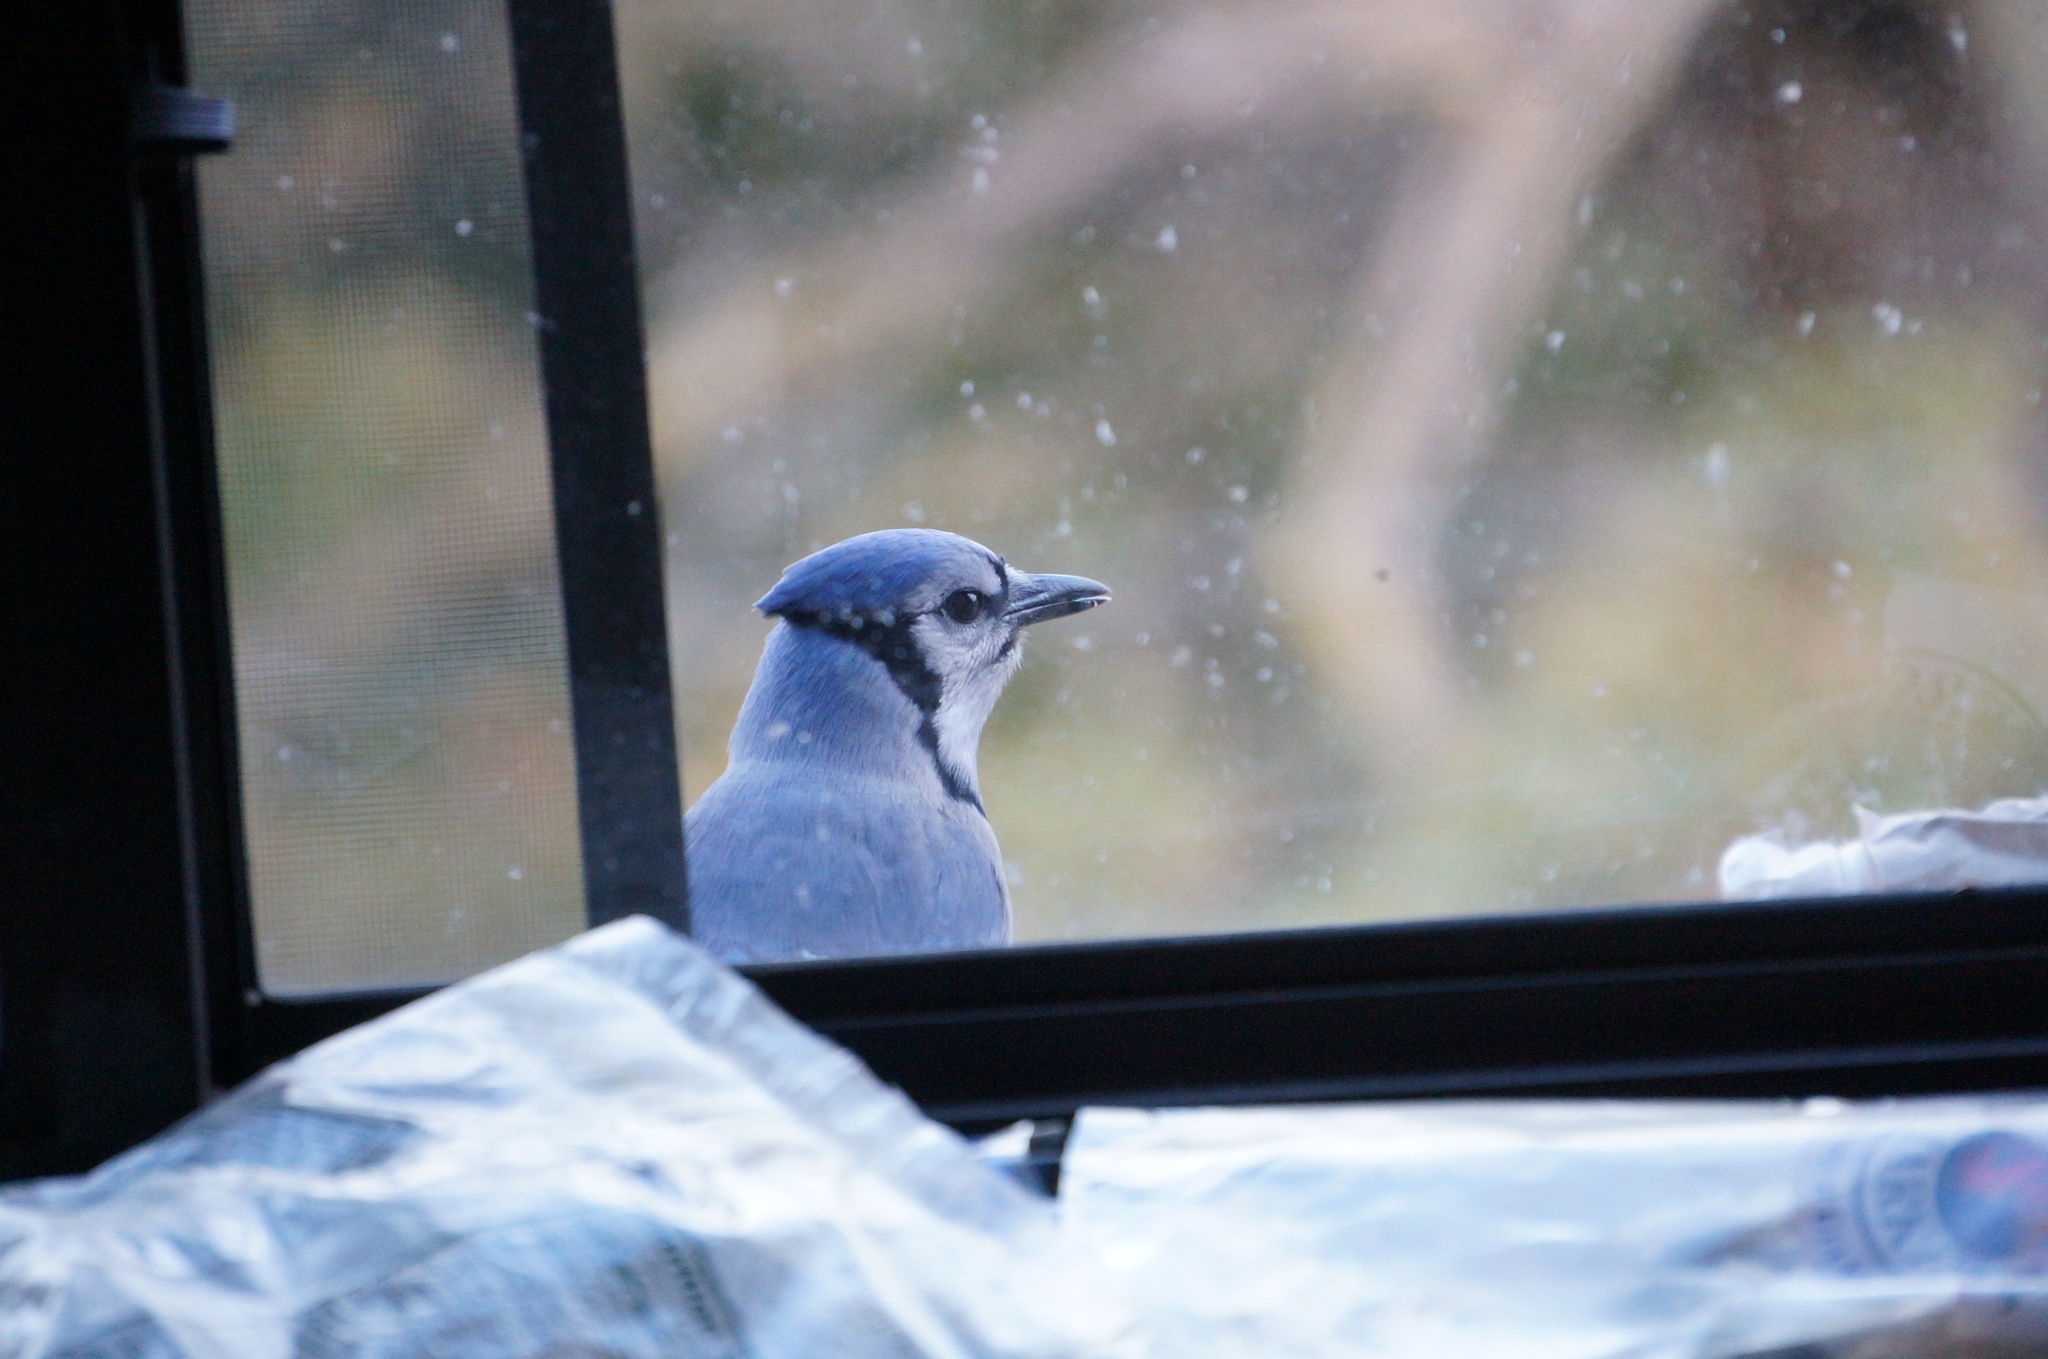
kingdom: Animalia
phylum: Chordata
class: Aves
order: Passeriformes
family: Corvidae
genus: Cyanocitta
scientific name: Cyanocitta cristata
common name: Blue jay
